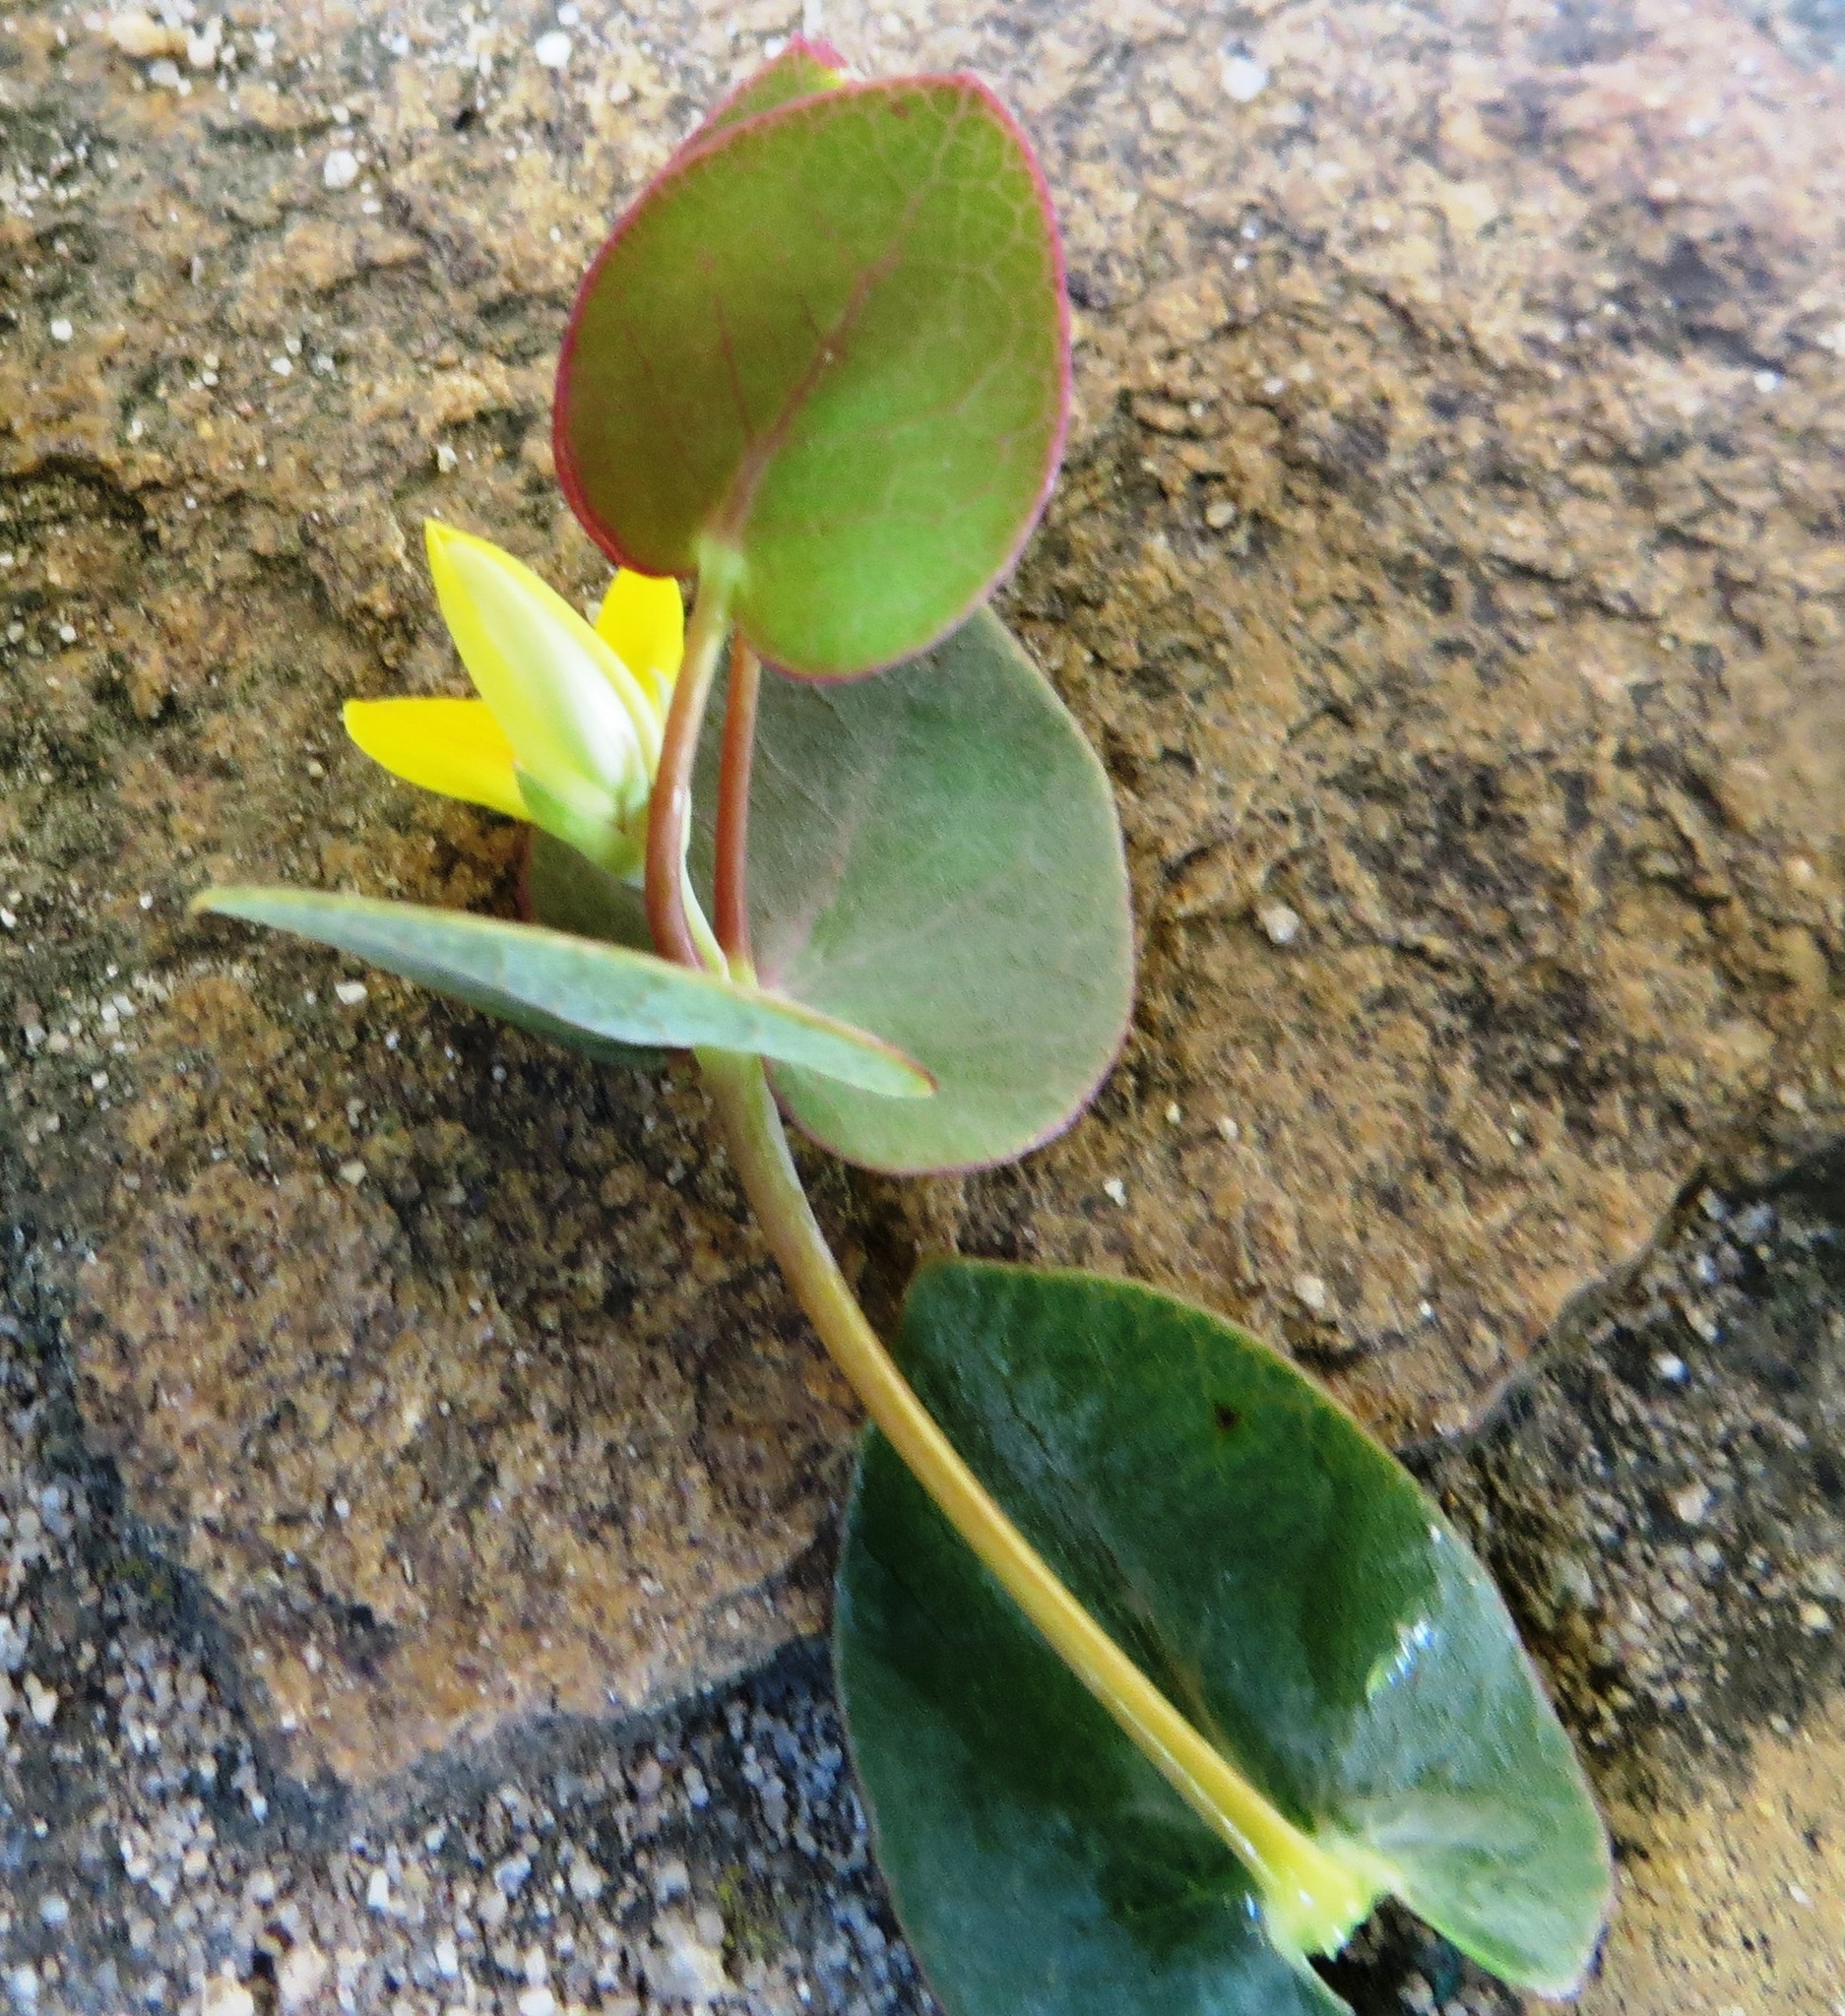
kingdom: Plantae
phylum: Tracheophyta
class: Magnoliopsida
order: Fabales
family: Fabaceae
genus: Rafnia
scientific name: Rafnia acuminata
